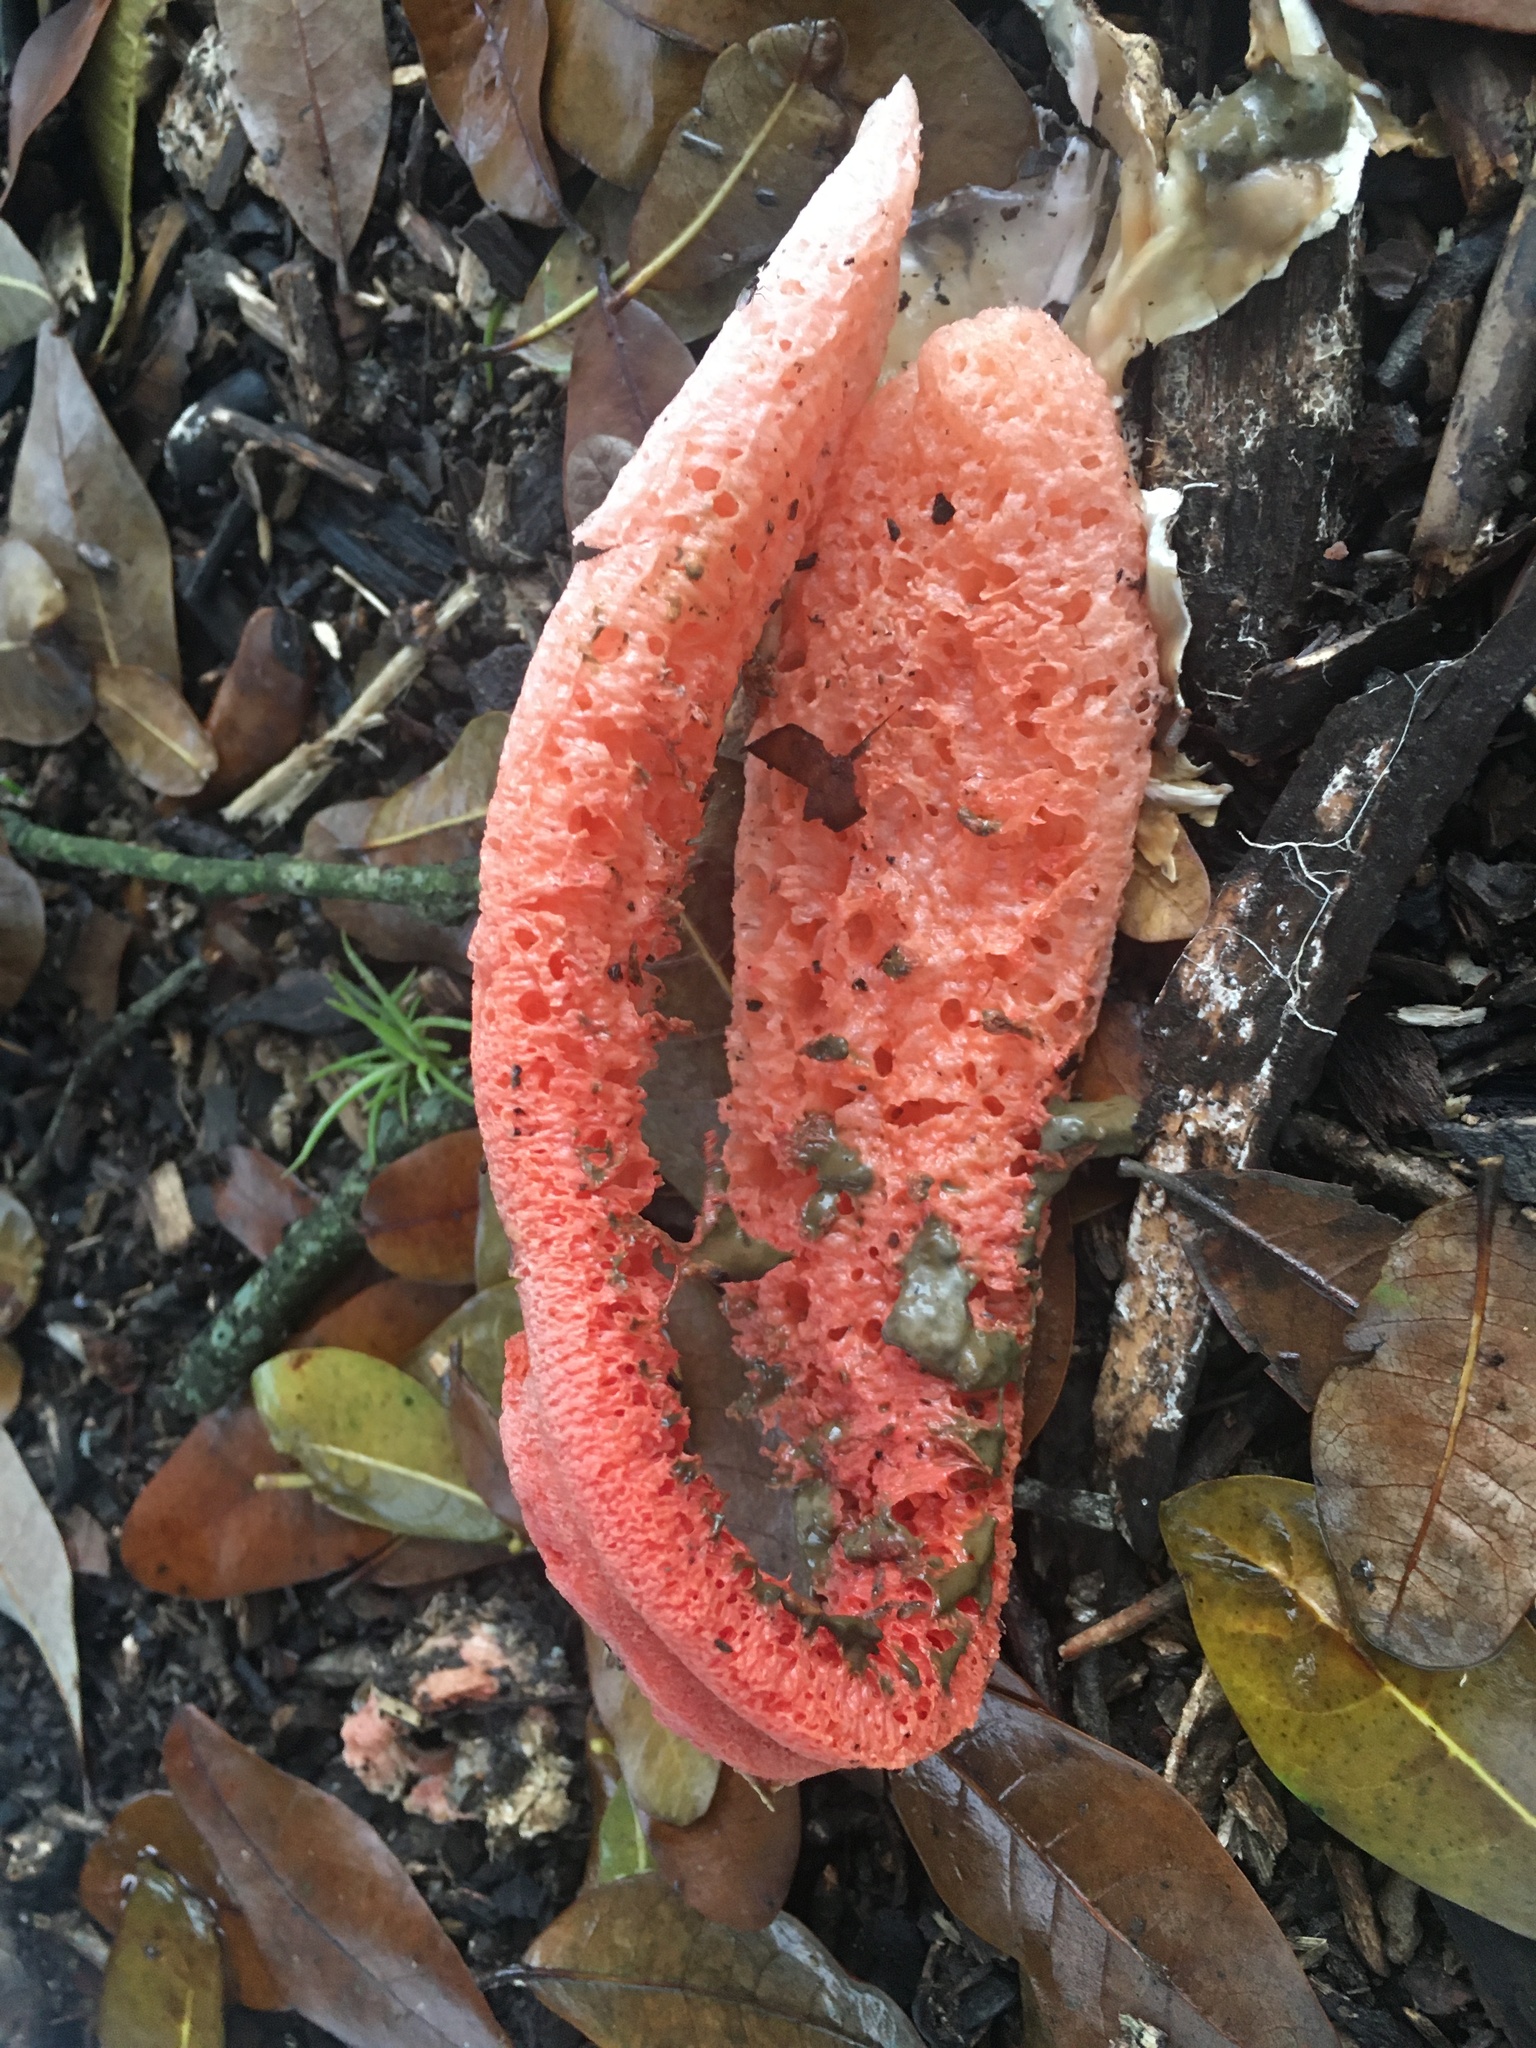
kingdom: Fungi
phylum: Basidiomycota
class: Agaricomycetes
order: Phallales
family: Phallaceae
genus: Clathrus
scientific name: Clathrus columnatus
